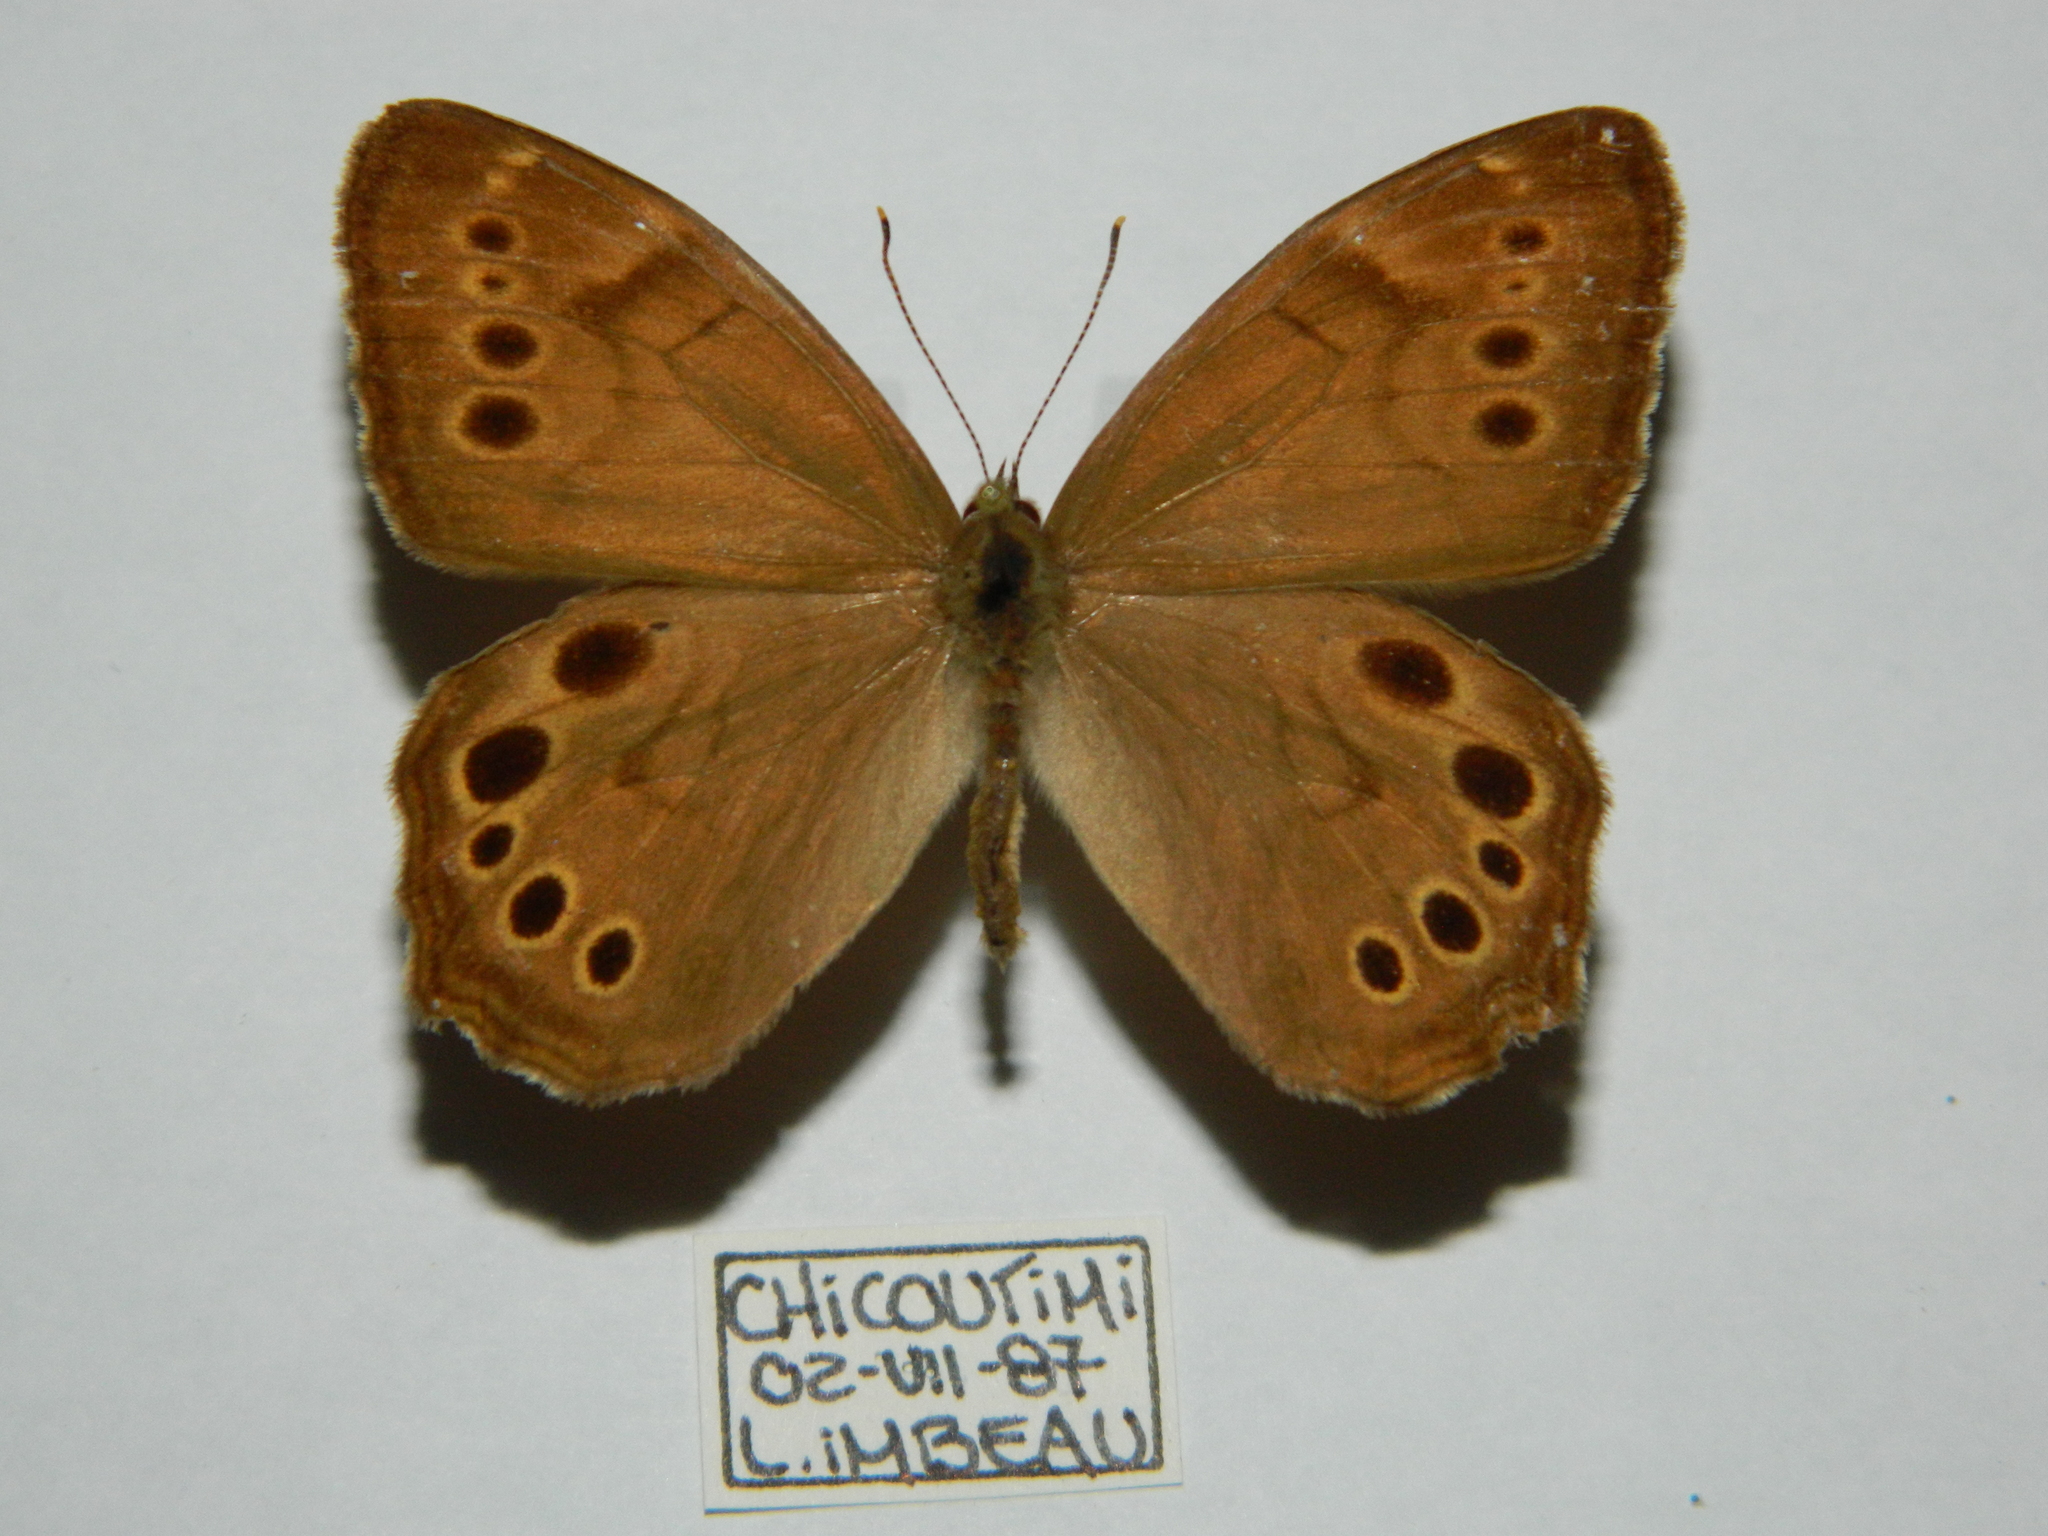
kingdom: Animalia
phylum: Arthropoda
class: Insecta
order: Lepidoptera
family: Nymphalidae
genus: Lethe
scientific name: Lethe anthedon
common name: Northern pearly-eye
